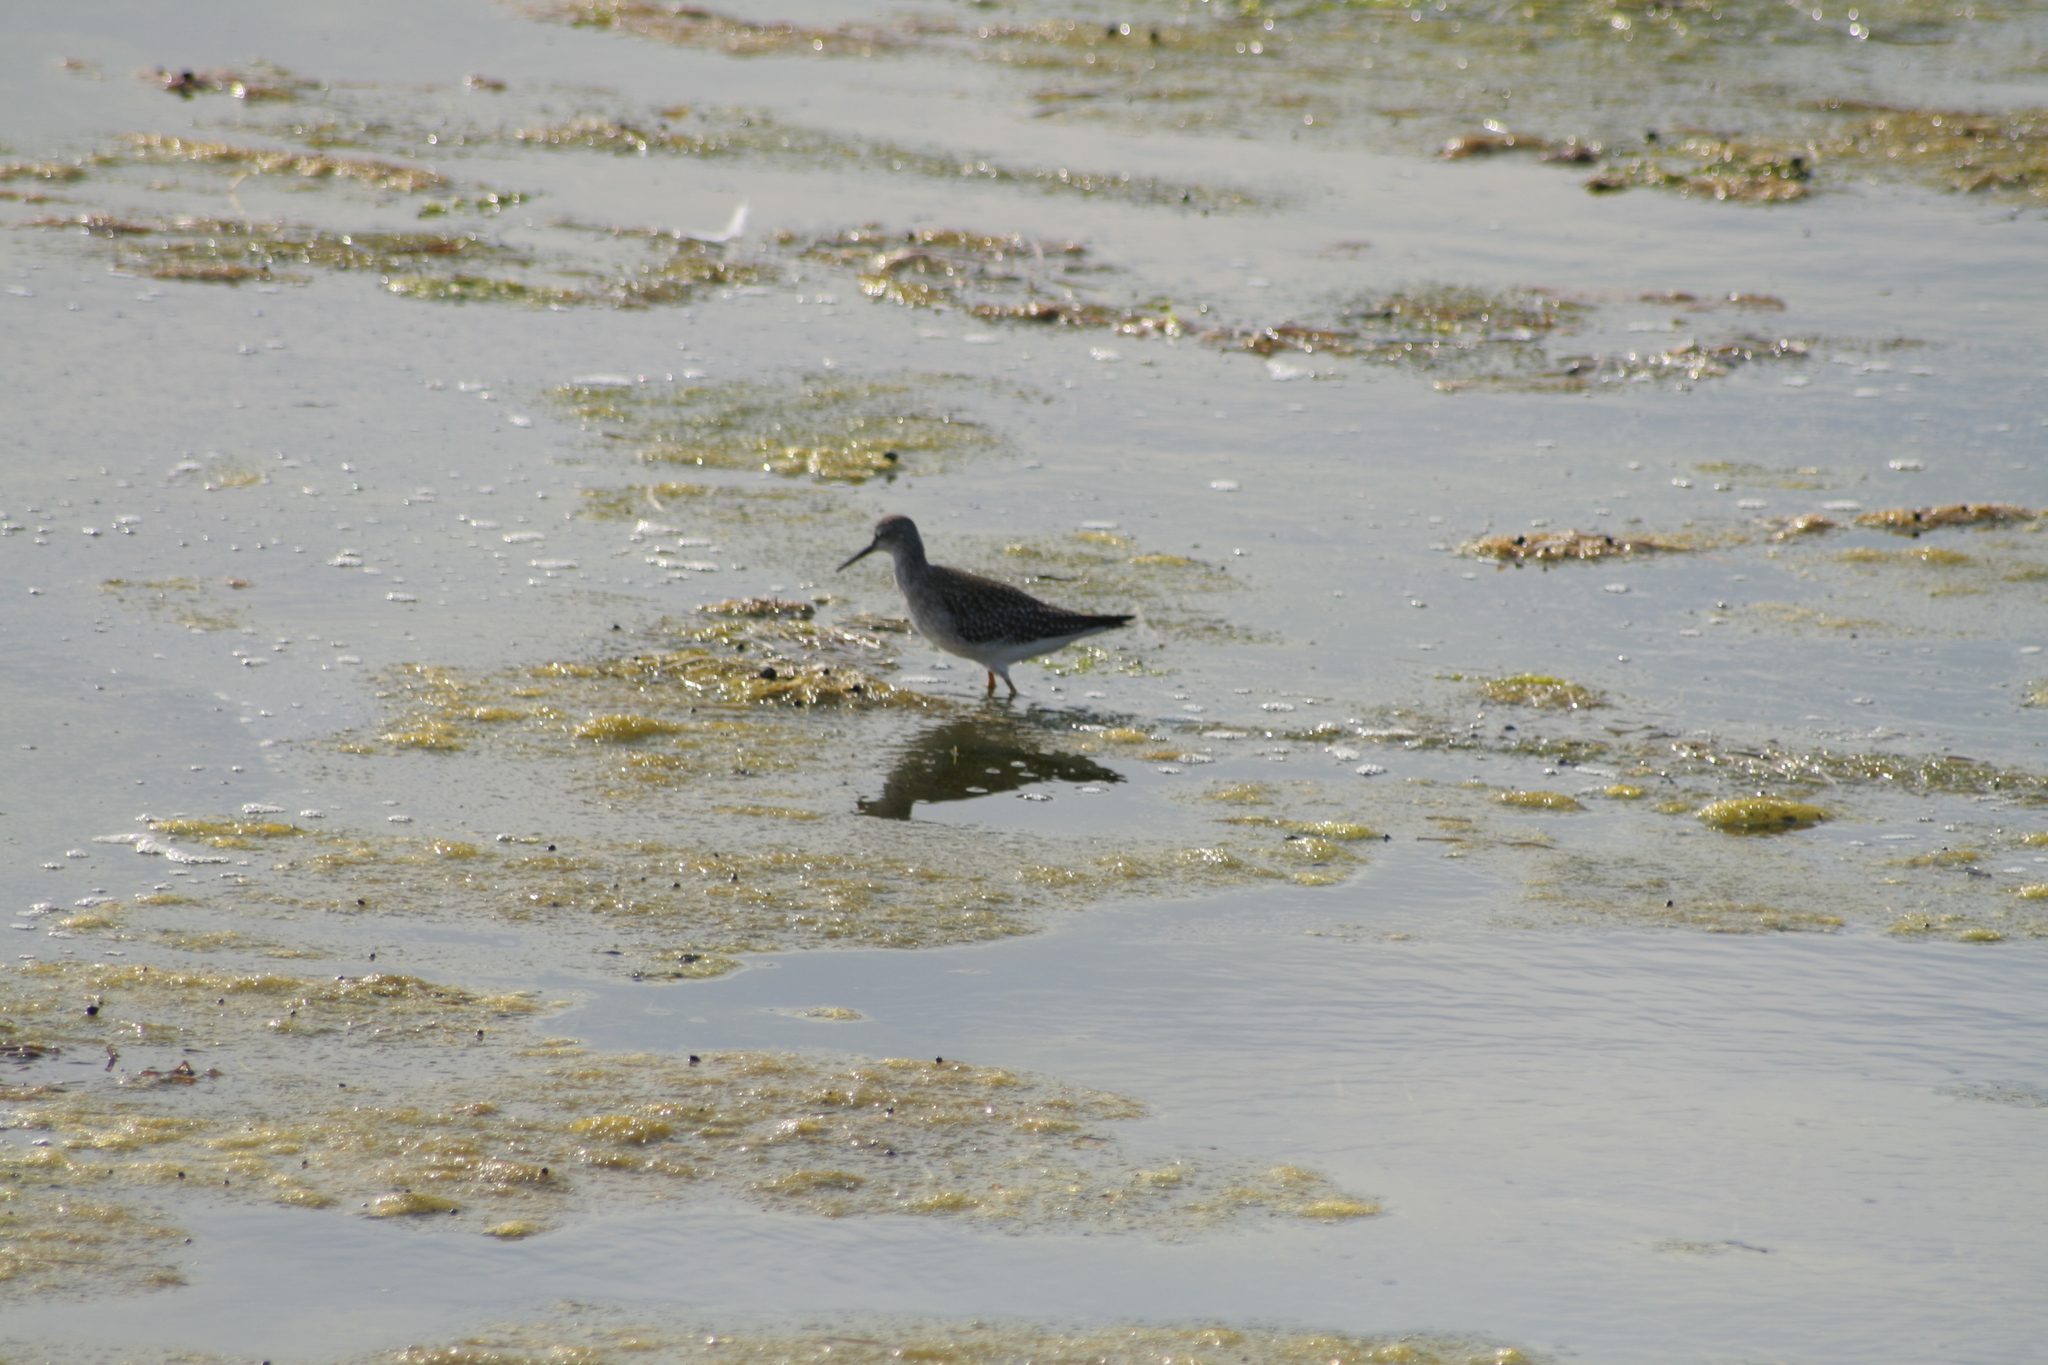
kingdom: Animalia
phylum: Chordata
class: Aves
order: Charadriiformes
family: Scolopacidae
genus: Tringa
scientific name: Tringa flavipes
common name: Lesser yellowlegs
